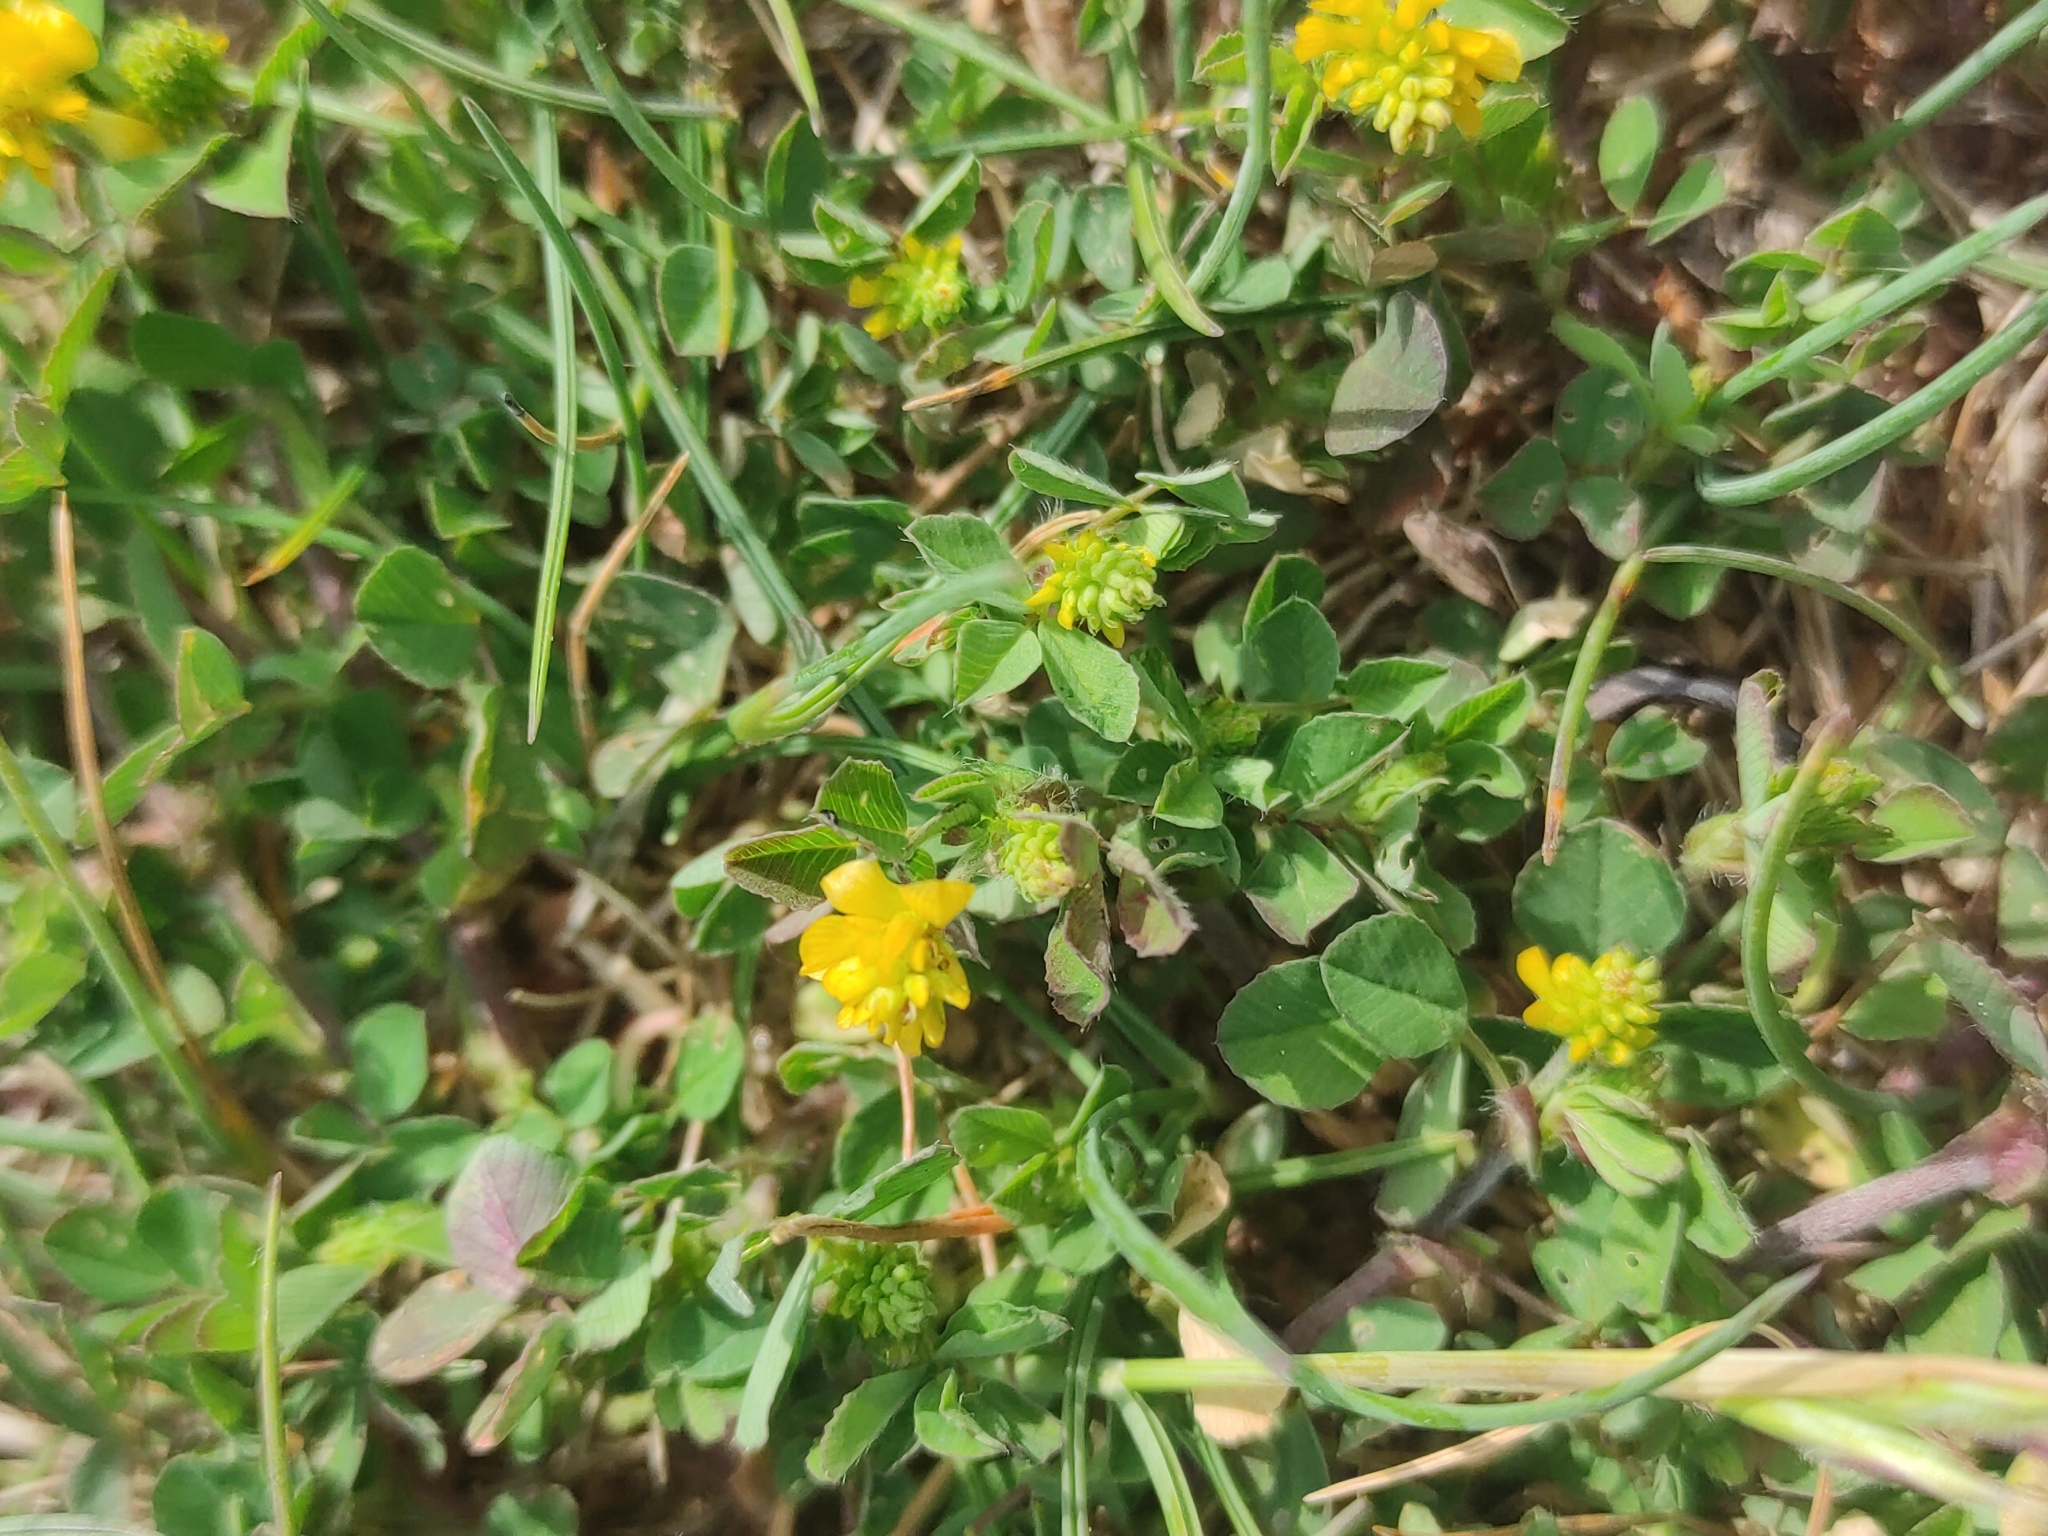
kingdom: Plantae
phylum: Tracheophyta
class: Magnoliopsida
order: Fabales
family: Fabaceae
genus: Trifolium
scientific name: Trifolium campestre
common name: Field clover
